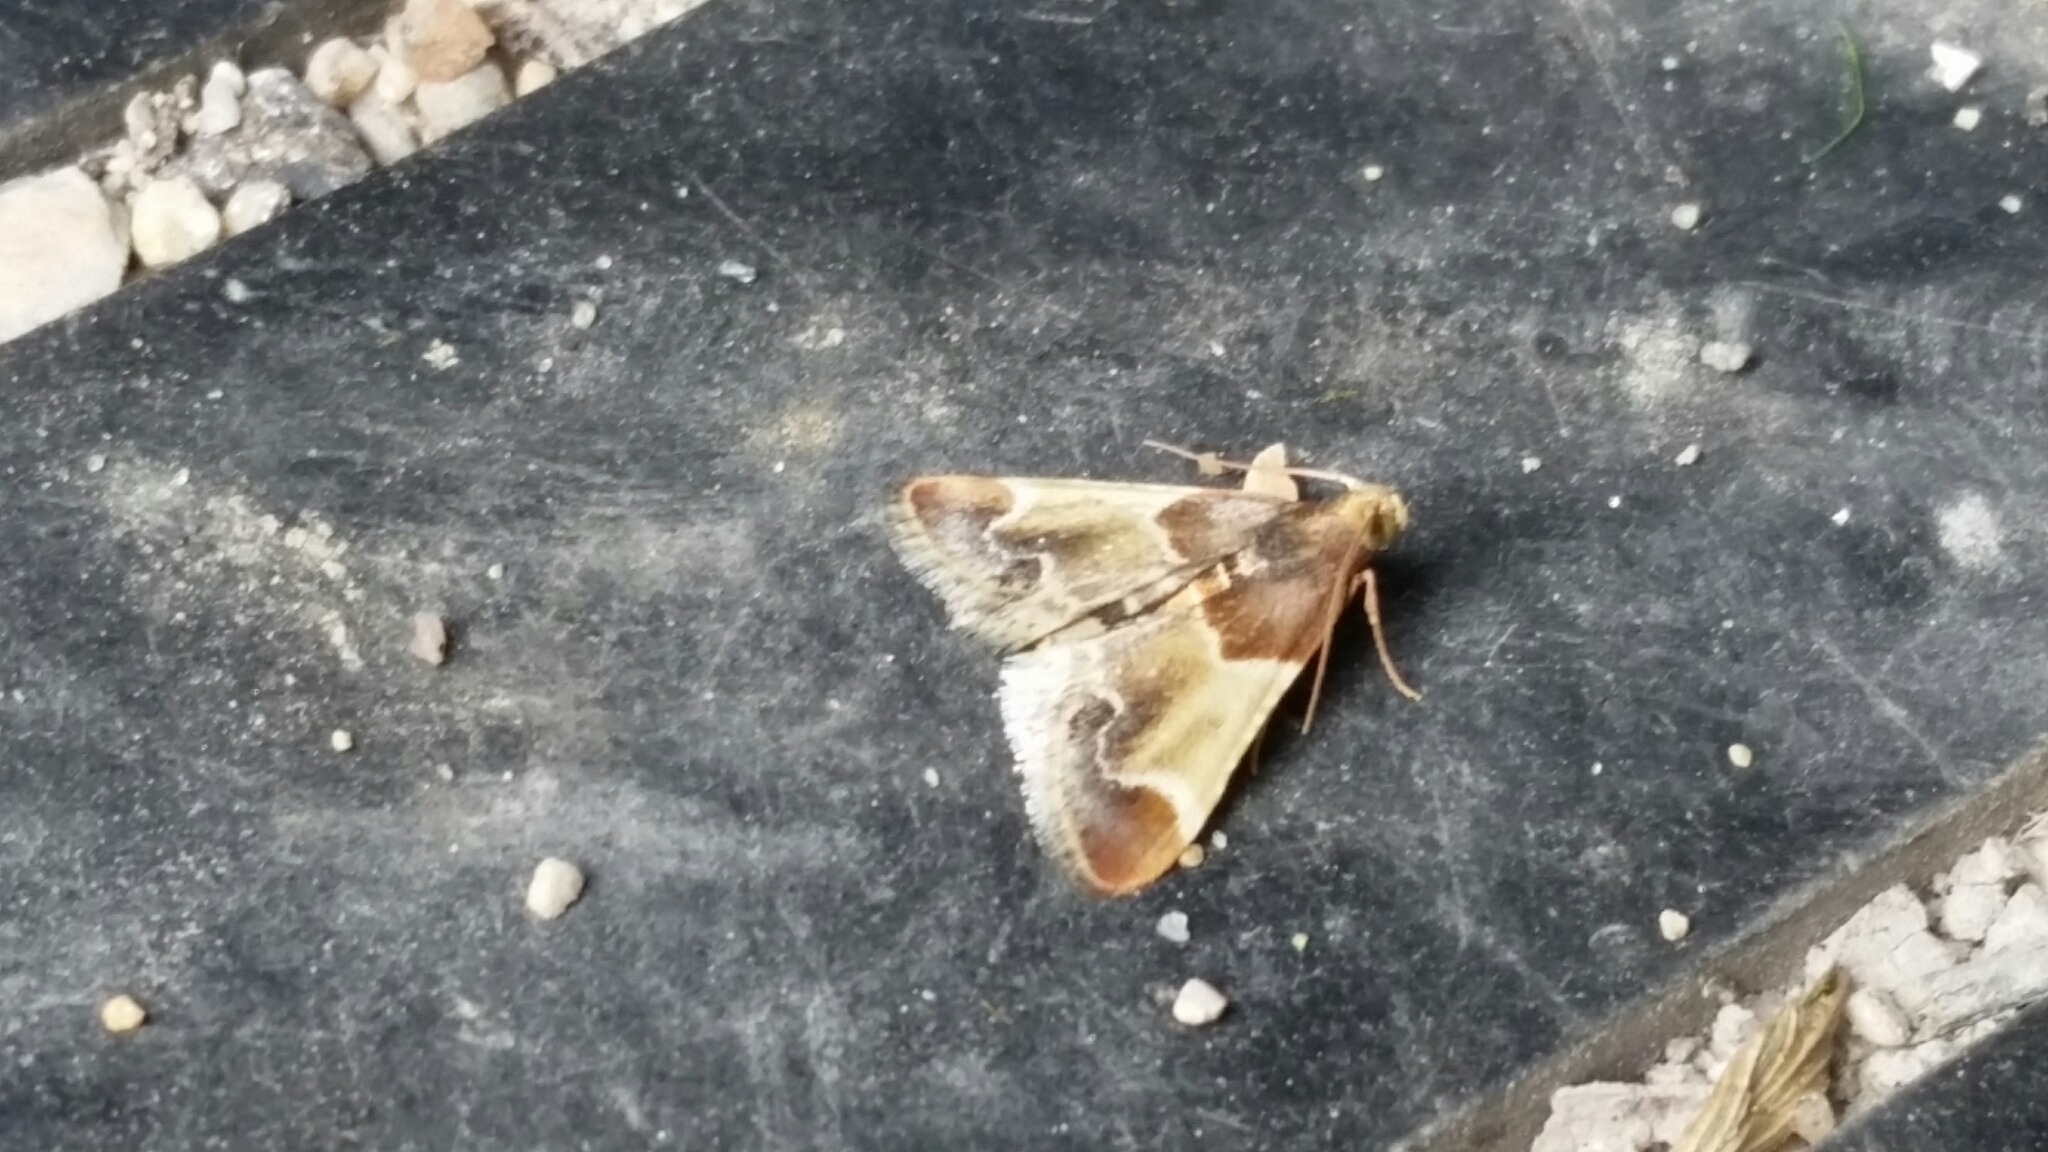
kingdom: Animalia
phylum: Arthropoda
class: Insecta
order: Lepidoptera
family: Pyralidae
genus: Pyralis
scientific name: Pyralis farinalis
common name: Meal moth
